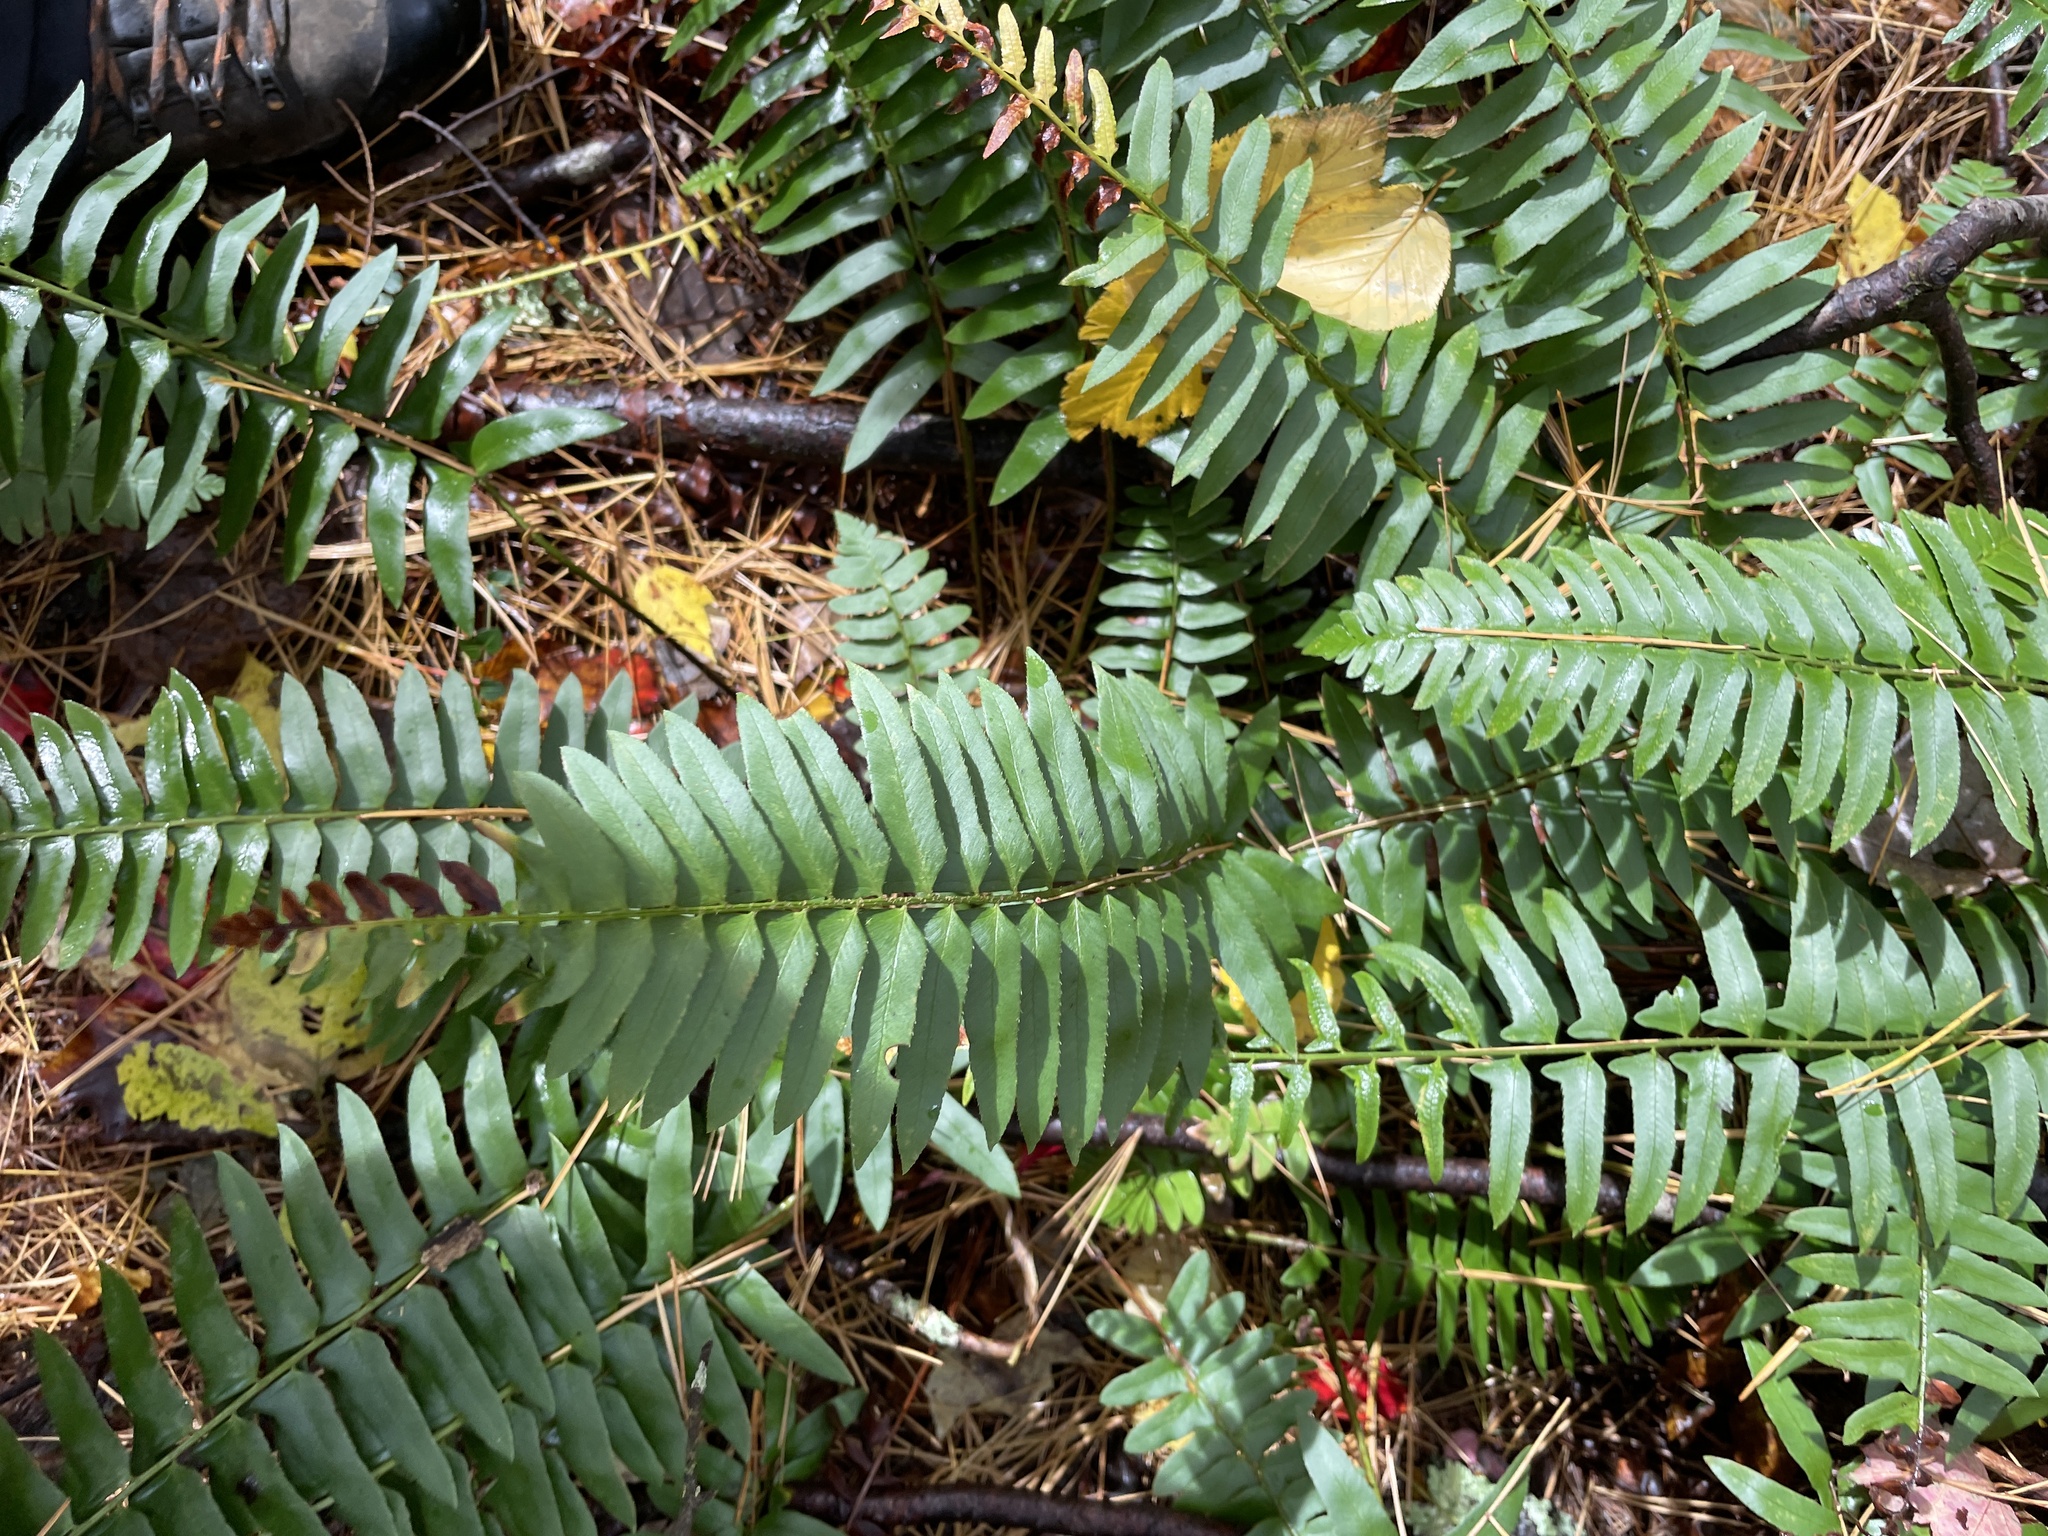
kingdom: Plantae
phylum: Tracheophyta
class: Polypodiopsida
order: Polypodiales
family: Dryopteridaceae
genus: Polystichum
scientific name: Polystichum acrostichoides
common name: Christmas fern
